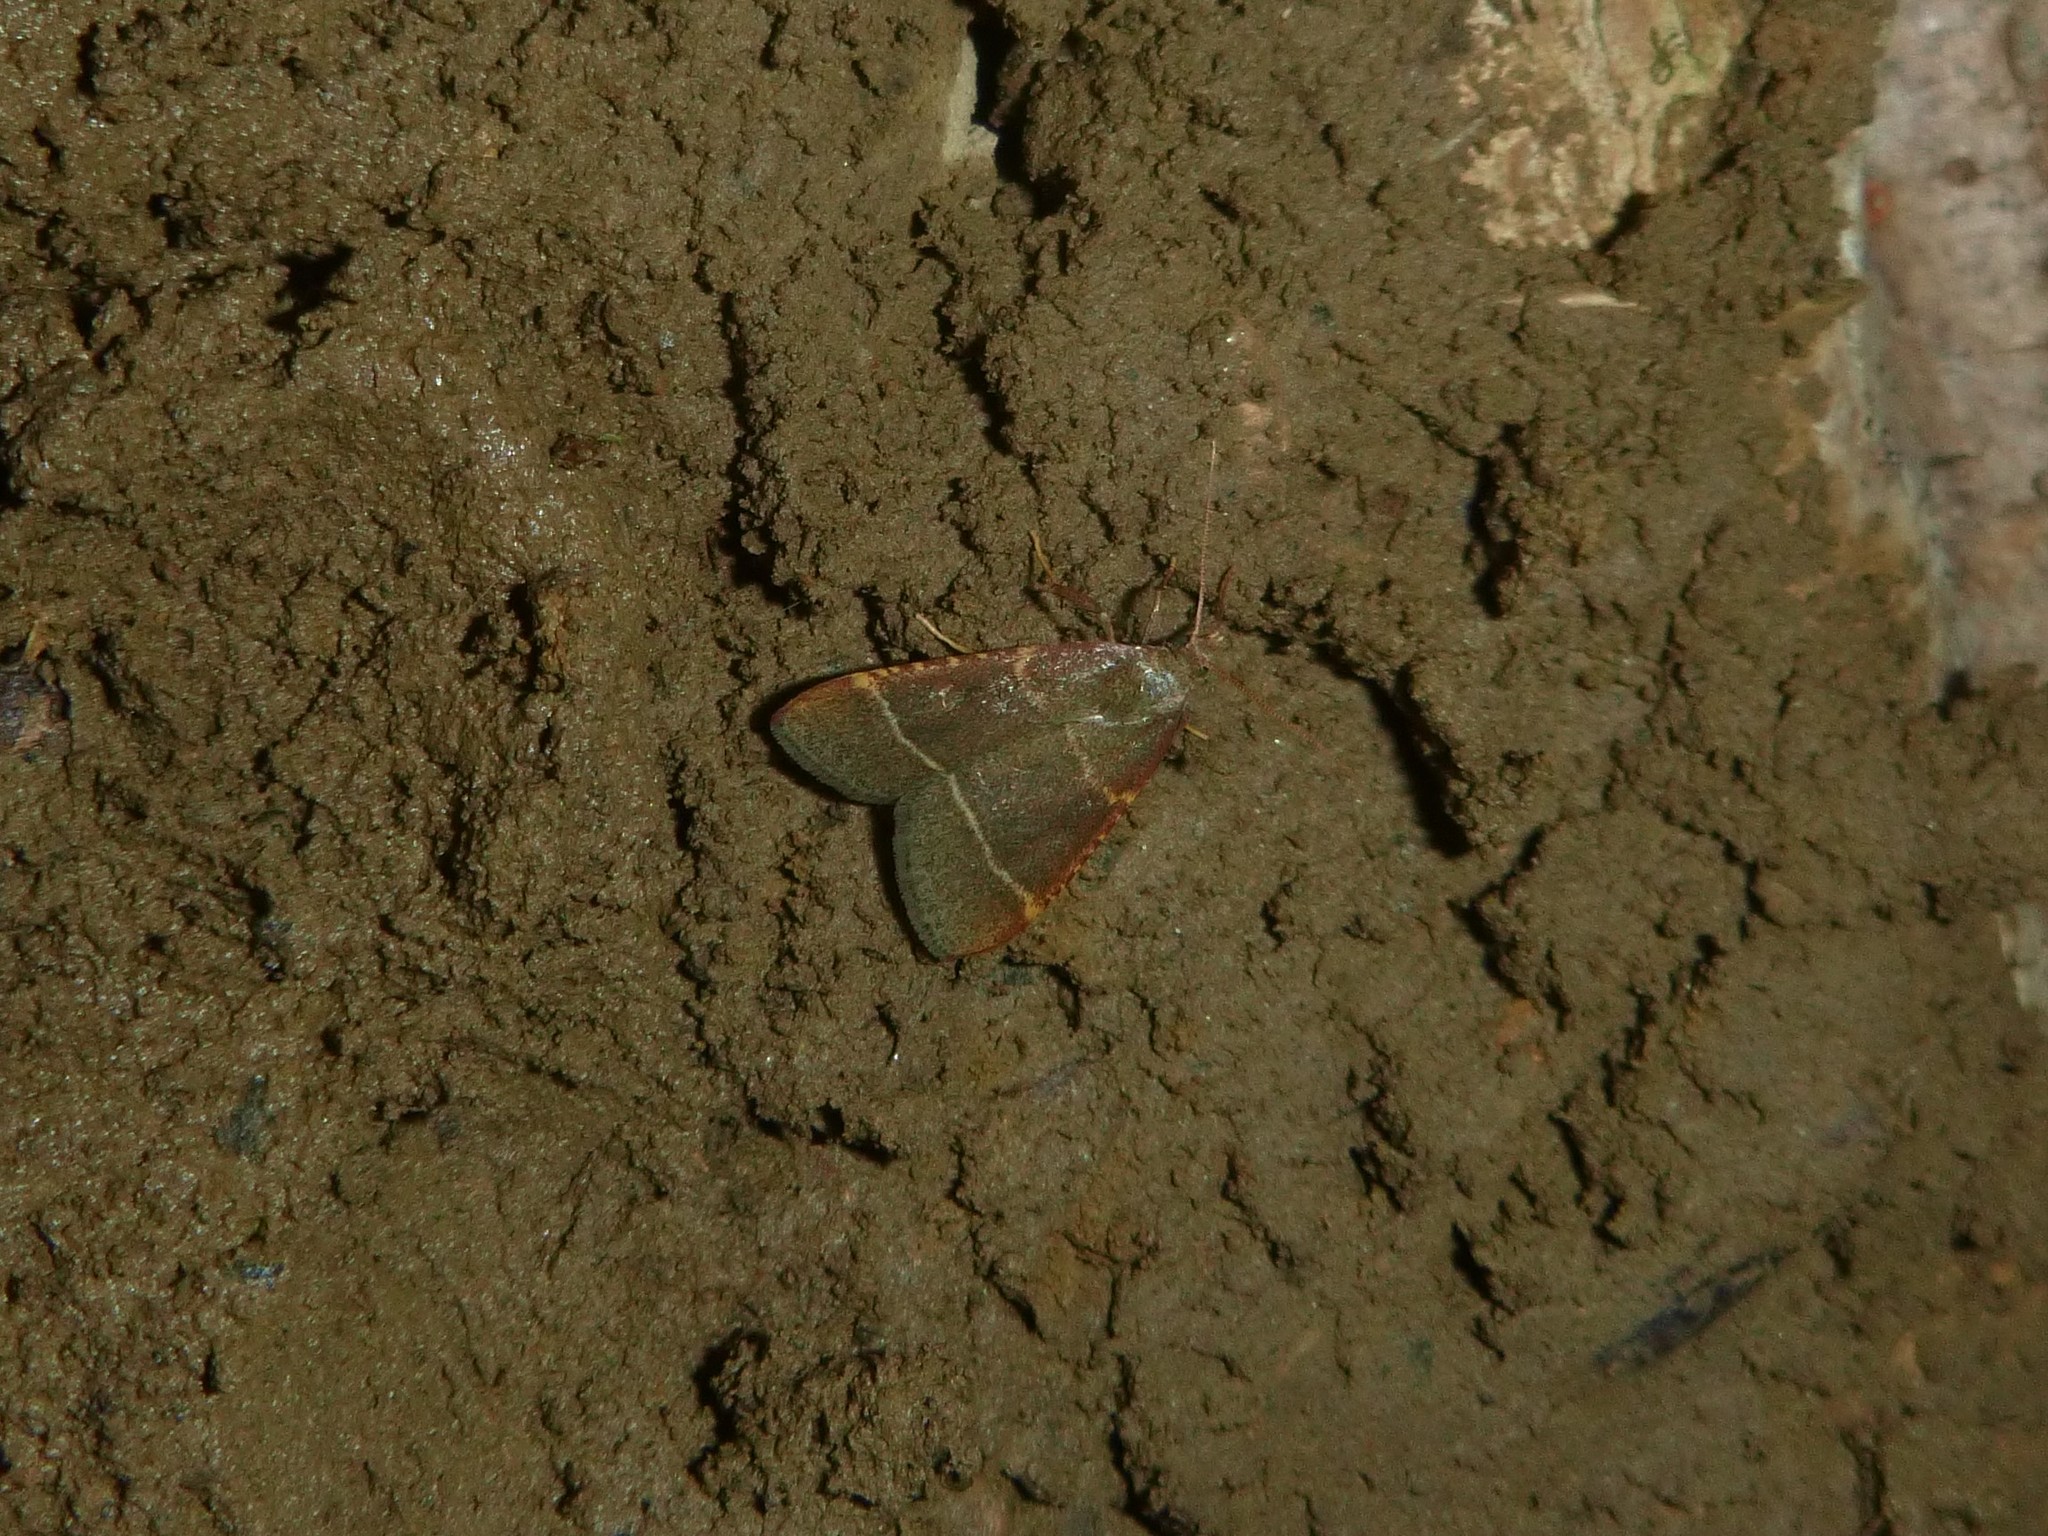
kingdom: Animalia
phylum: Arthropoda
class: Insecta
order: Lepidoptera
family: Pyralidae
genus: Hypsopygia
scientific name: Hypsopygia glaucinalis
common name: Double-striped tabby
